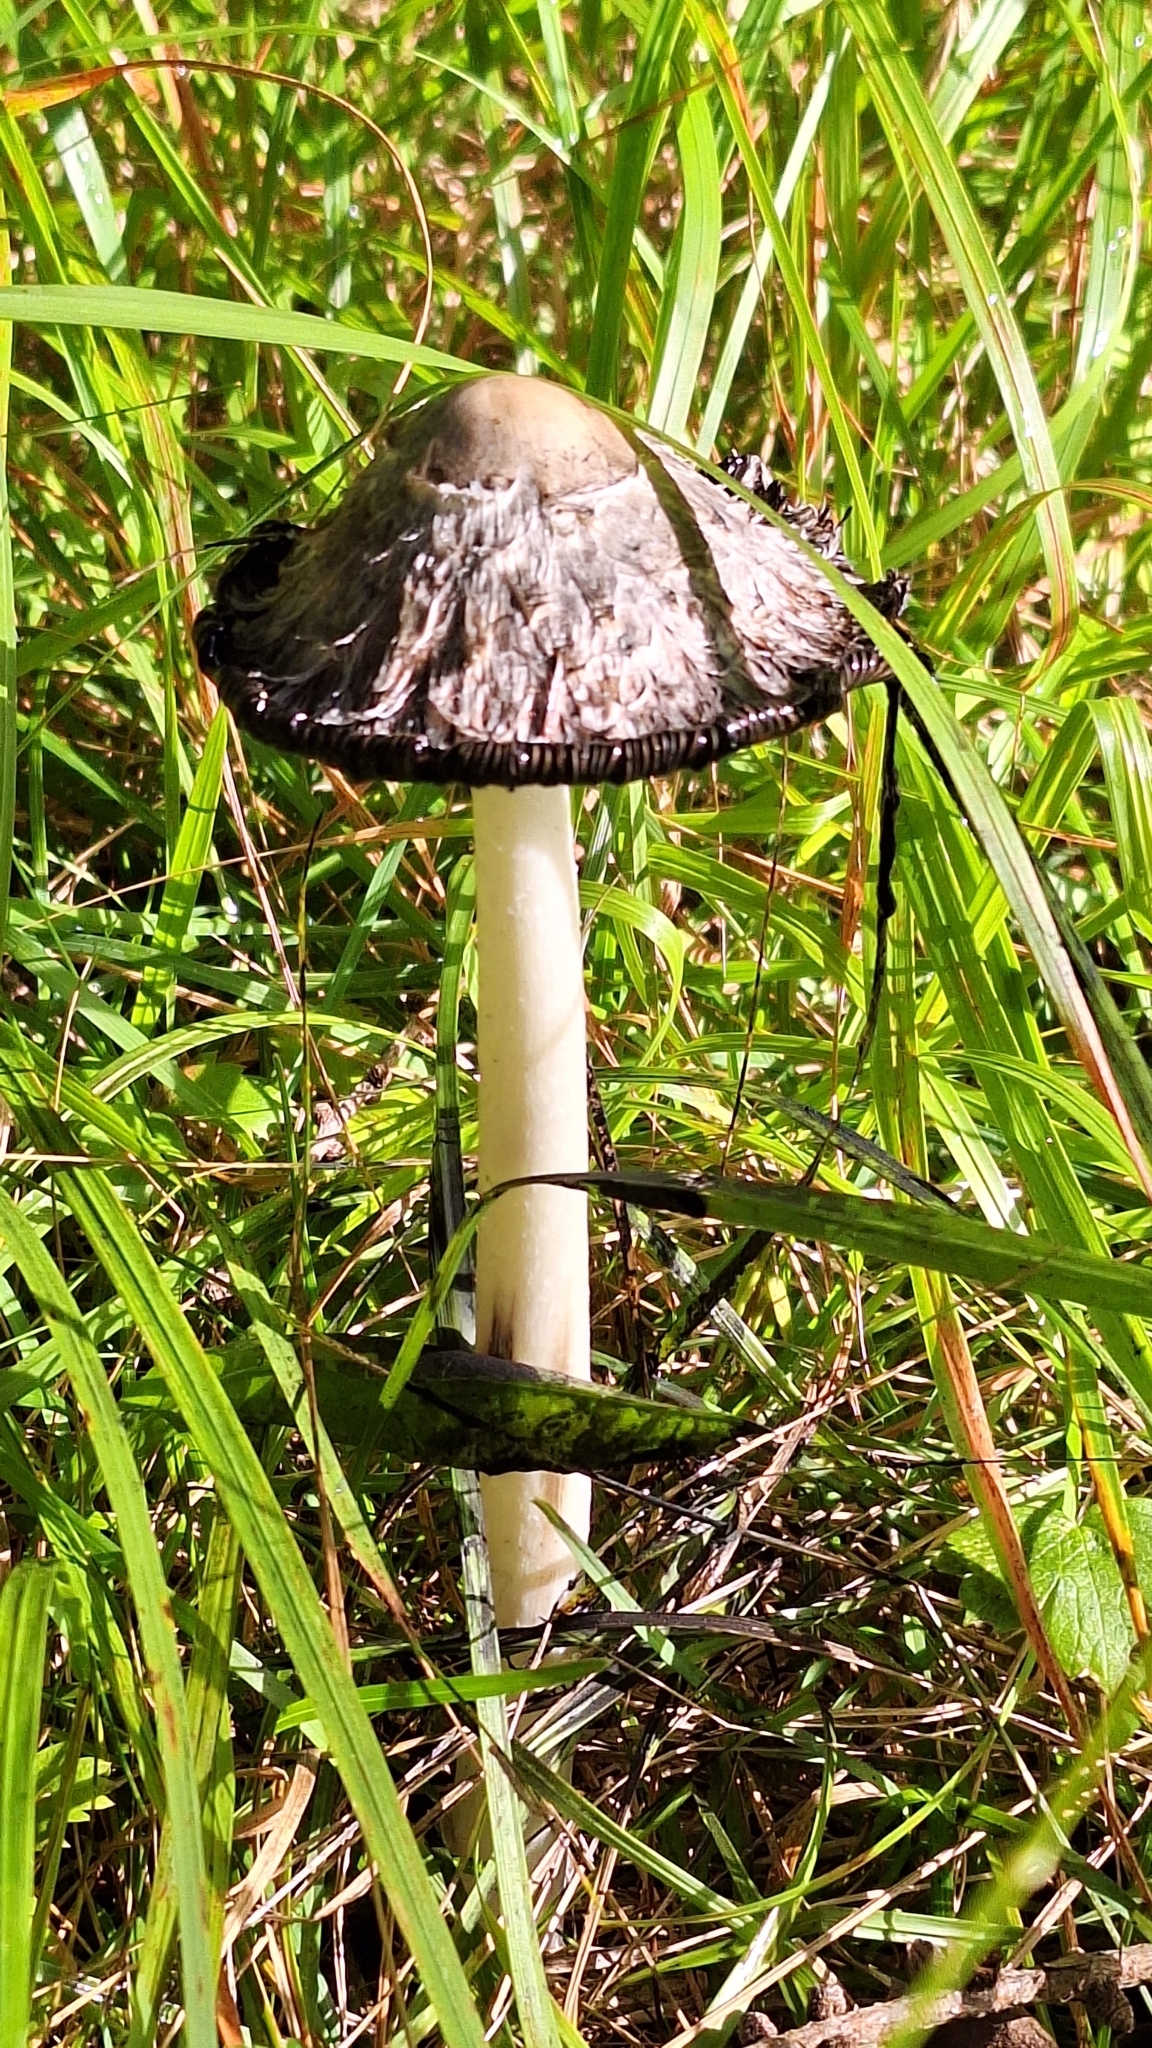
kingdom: Fungi
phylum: Basidiomycota
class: Agaricomycetes
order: Agaricales
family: Agaricaceae
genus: Coprinus
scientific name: Coprinus comatus
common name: Lawyer's wig
